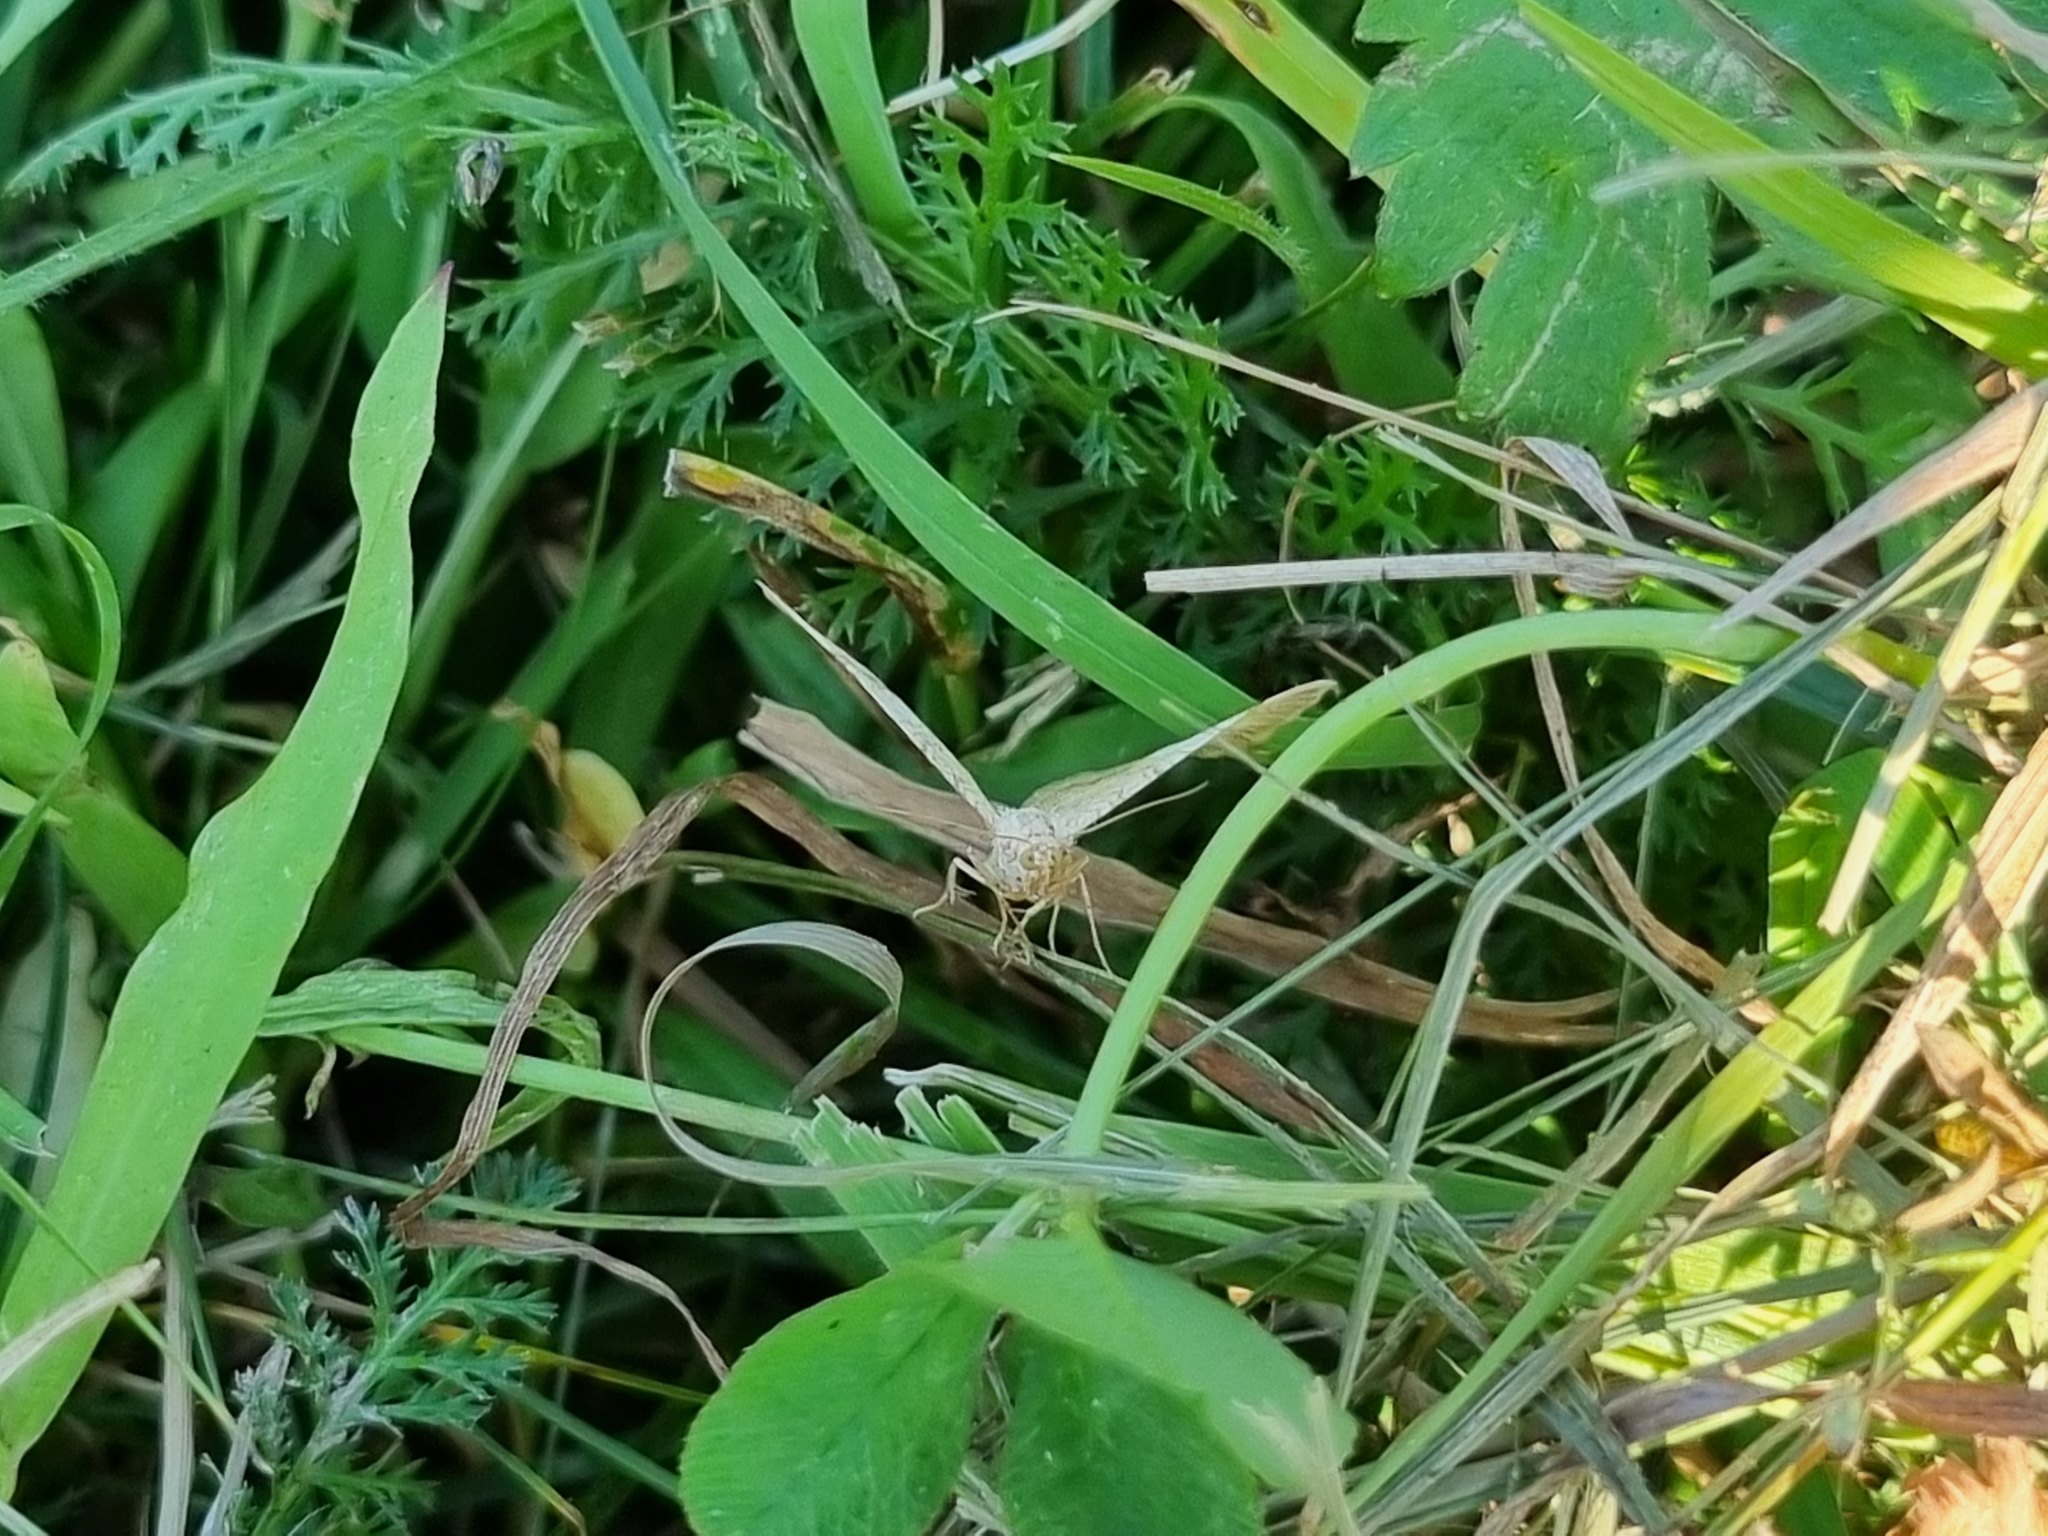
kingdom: Animalia
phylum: Arthropoda
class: Insecta
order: Lepidoptera
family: Geometridae
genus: Camptogramma
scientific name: Camptogramma bilineata
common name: Yellow shell
